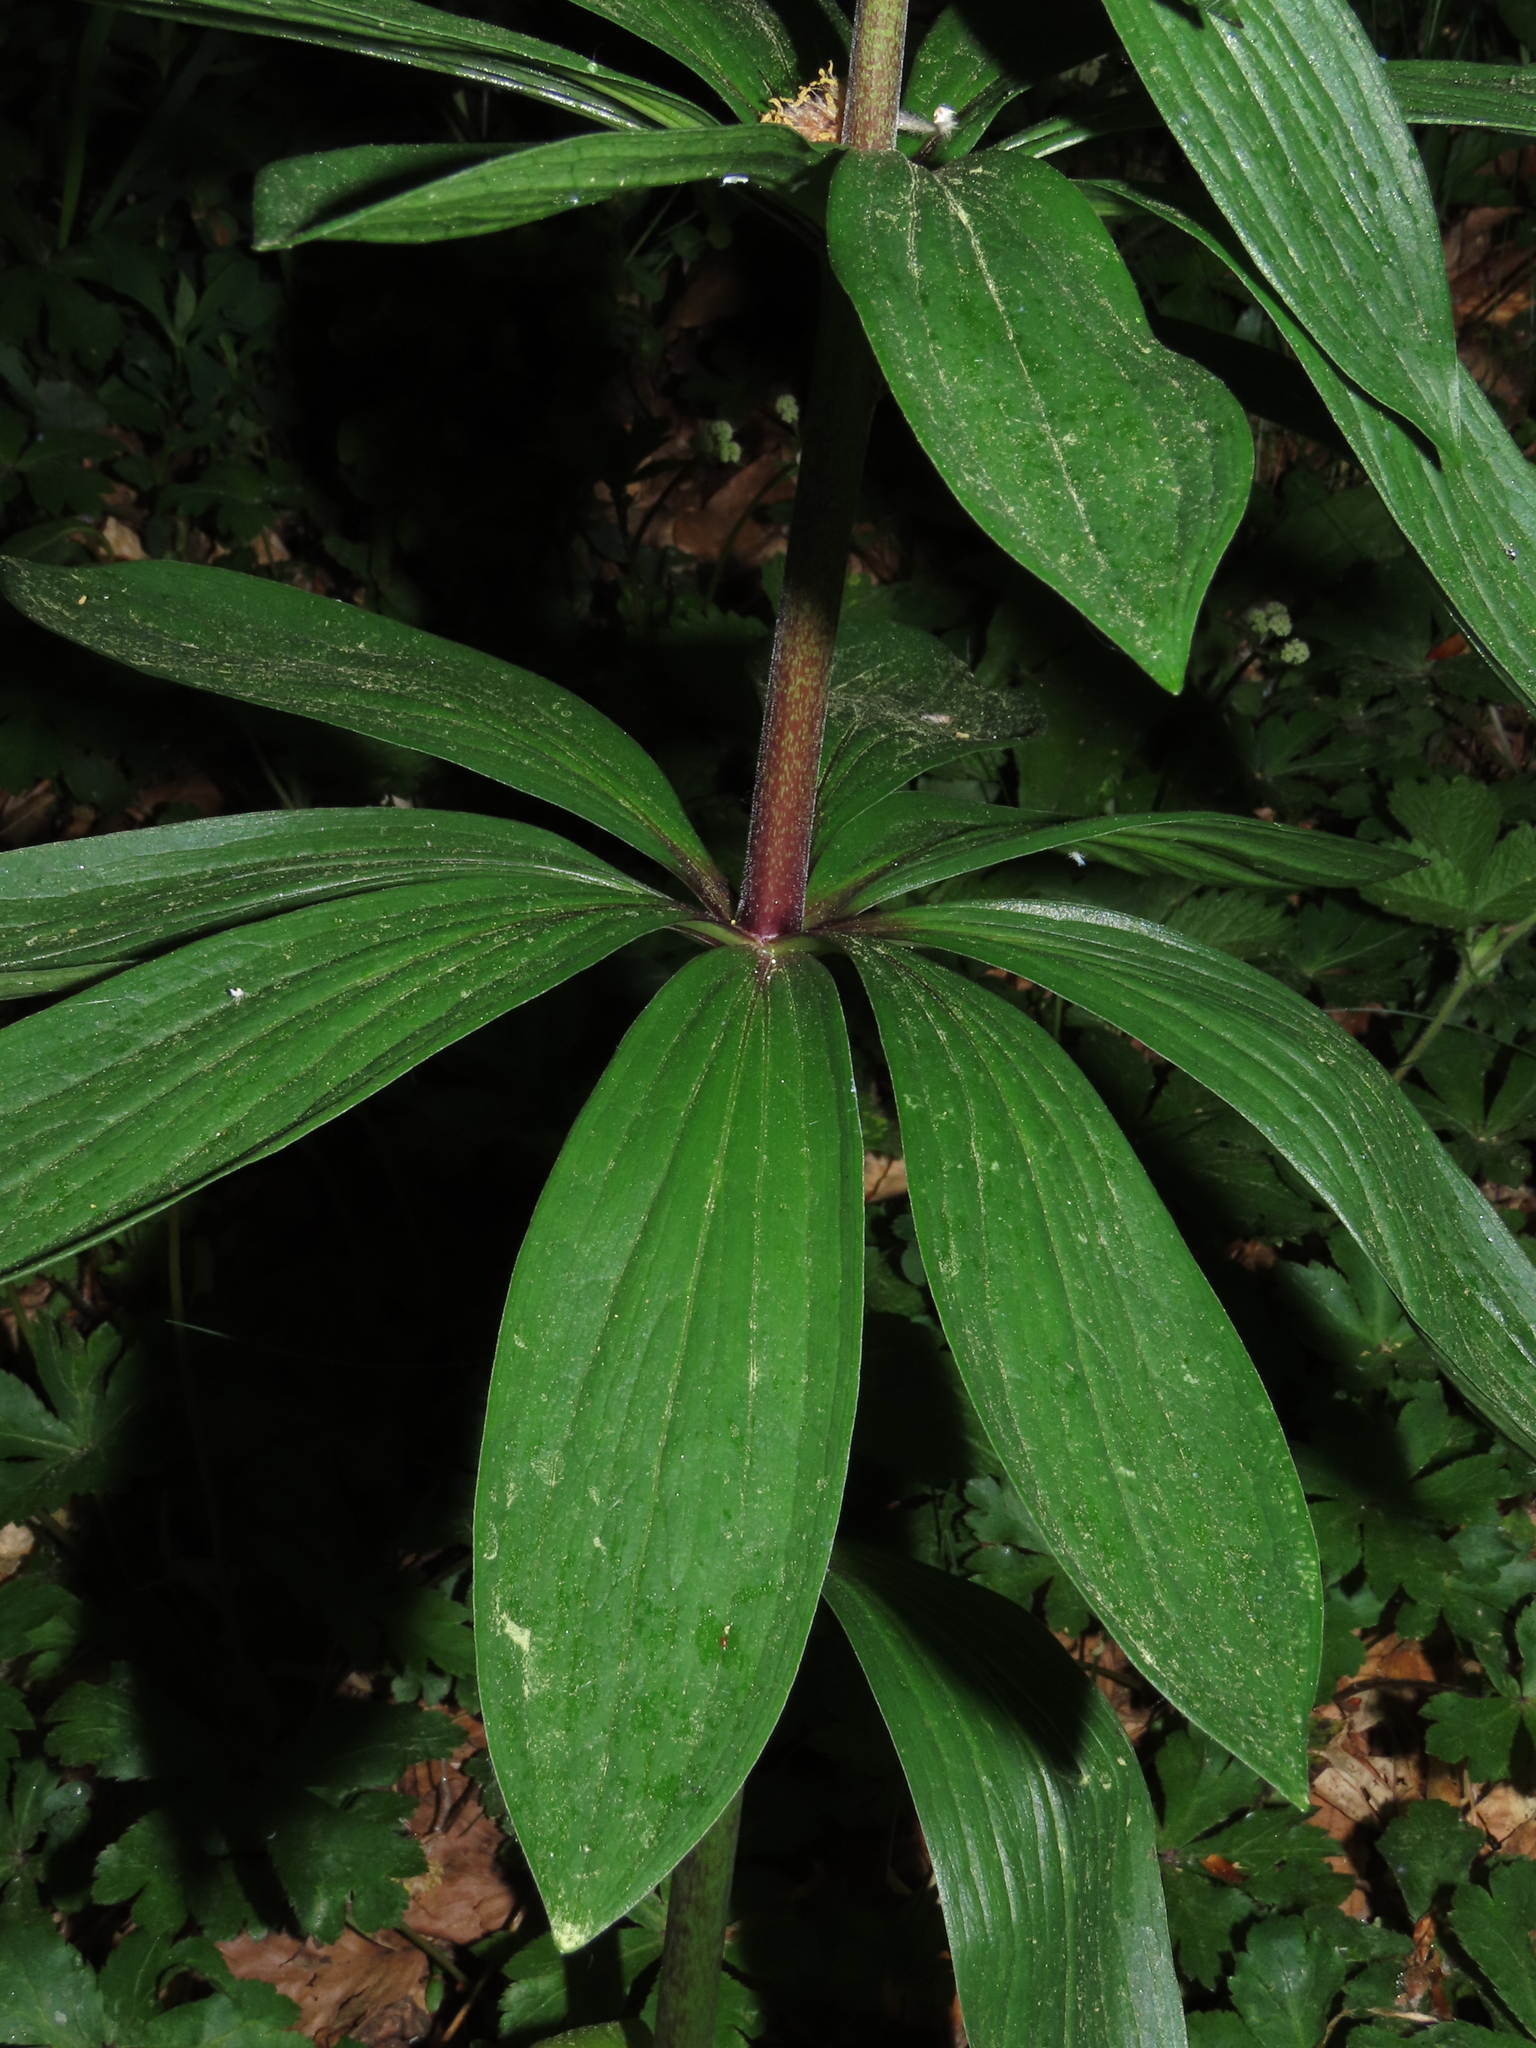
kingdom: Plantae
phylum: Tracheophyta
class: Liliopsida
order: Liliales
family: Liliaceae
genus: Lilium
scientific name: Lilium martagon
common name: Martagon lily
